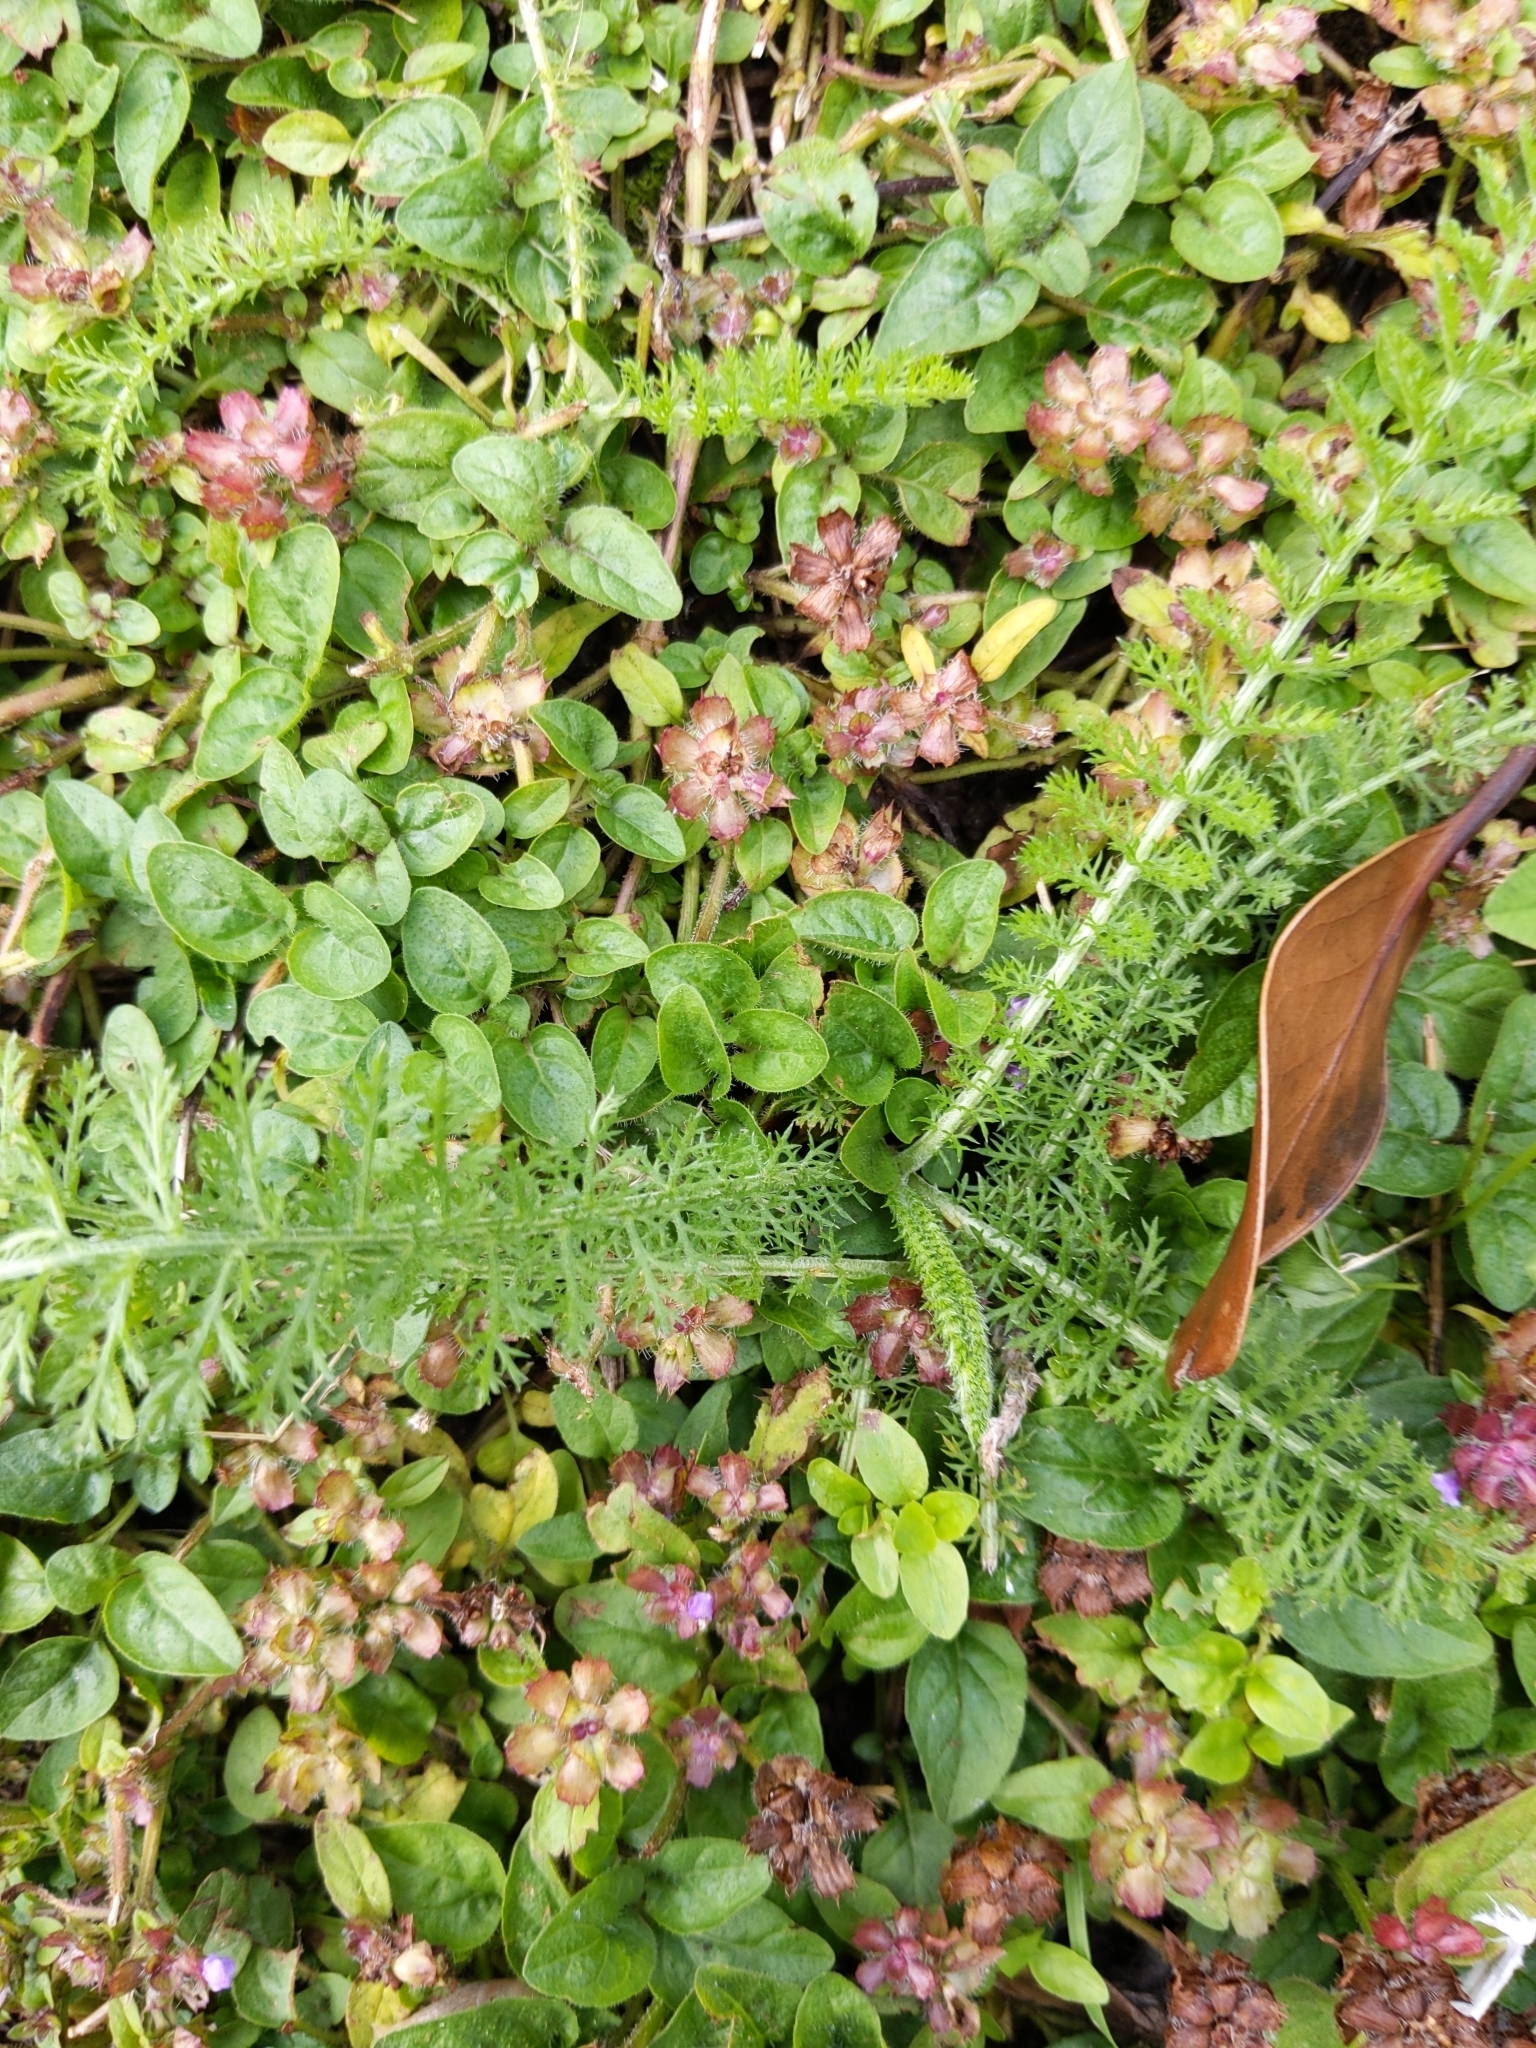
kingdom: Plantae
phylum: Tracheophyta
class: Magnoliopsida
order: Asterales
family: Asteraceae
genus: Achillea
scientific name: Achillea millefolium
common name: Yarrow
